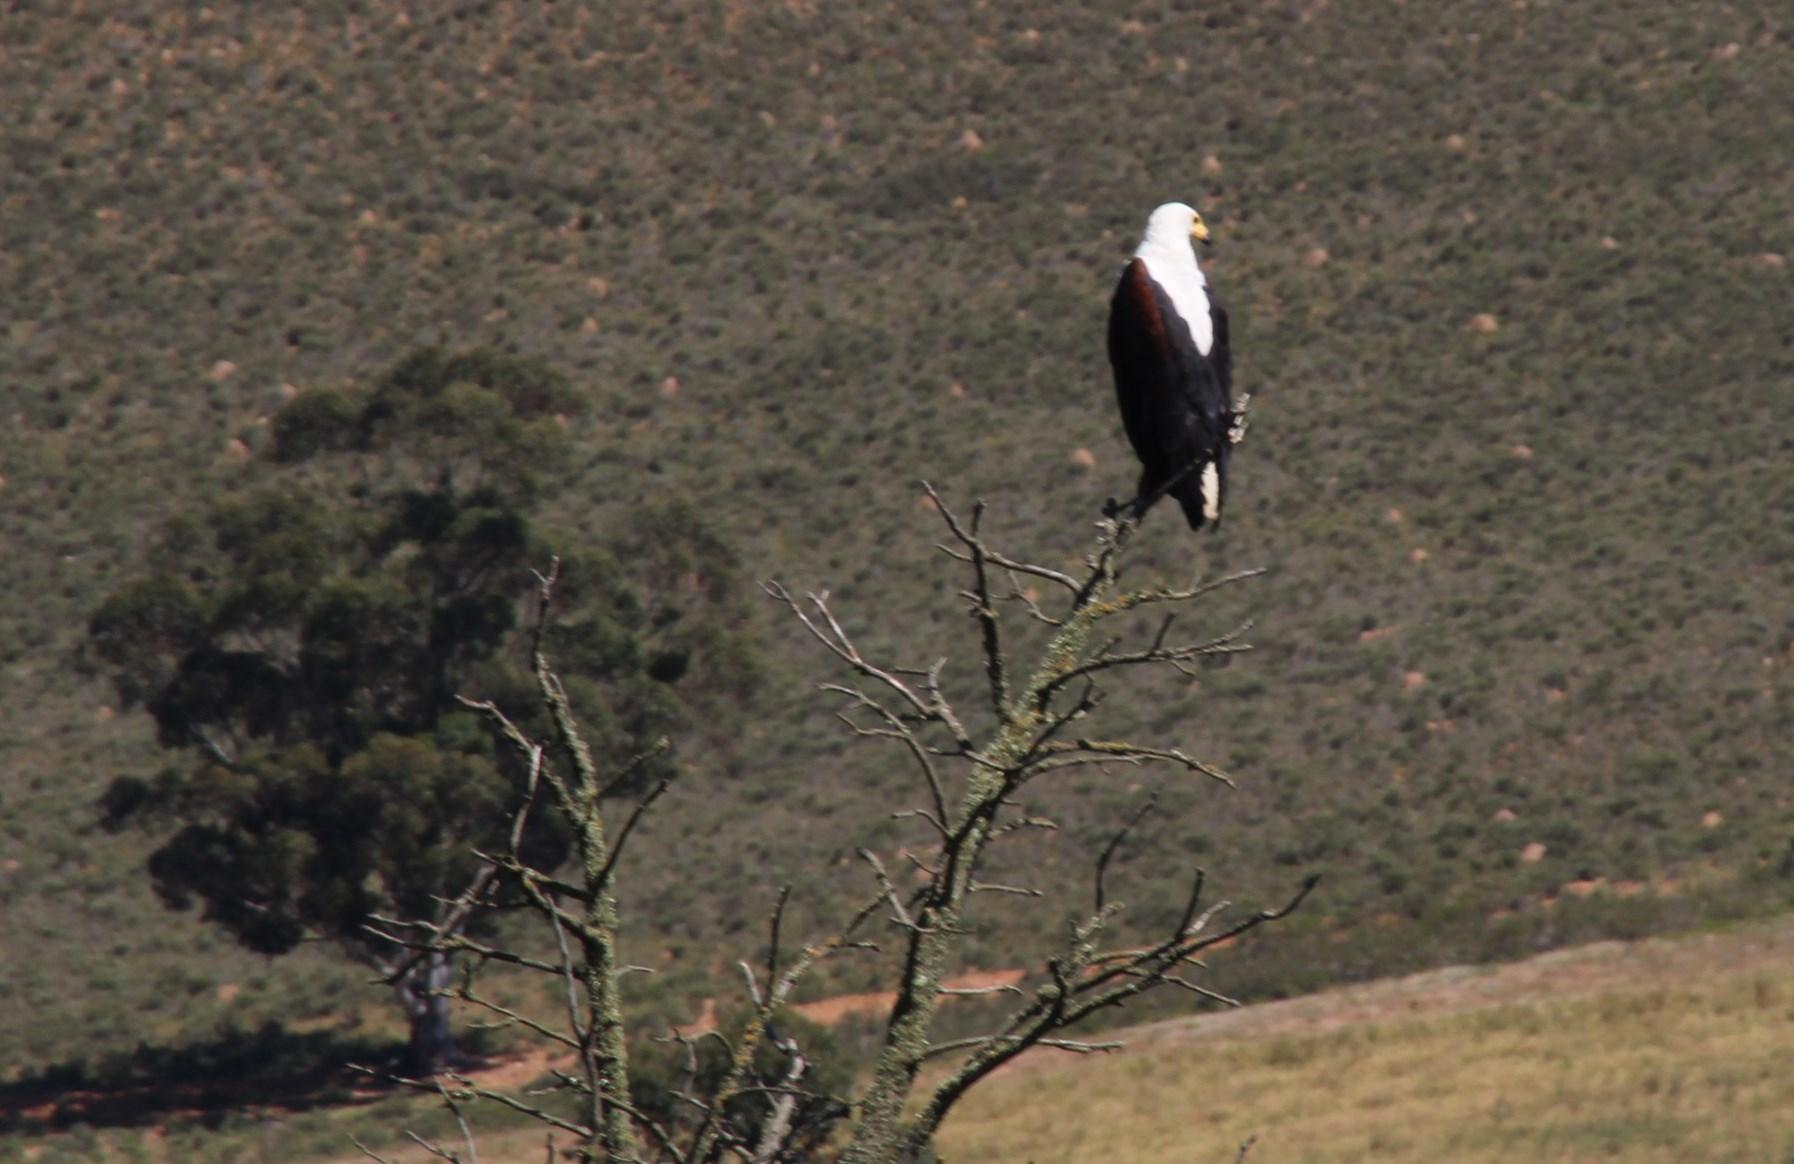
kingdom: Animalia
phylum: Chordata
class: Aves
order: Accipitriformes
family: Accipitridae
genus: Haliaeetus
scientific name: Haliaeetus vocifer
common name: African fish eagle
